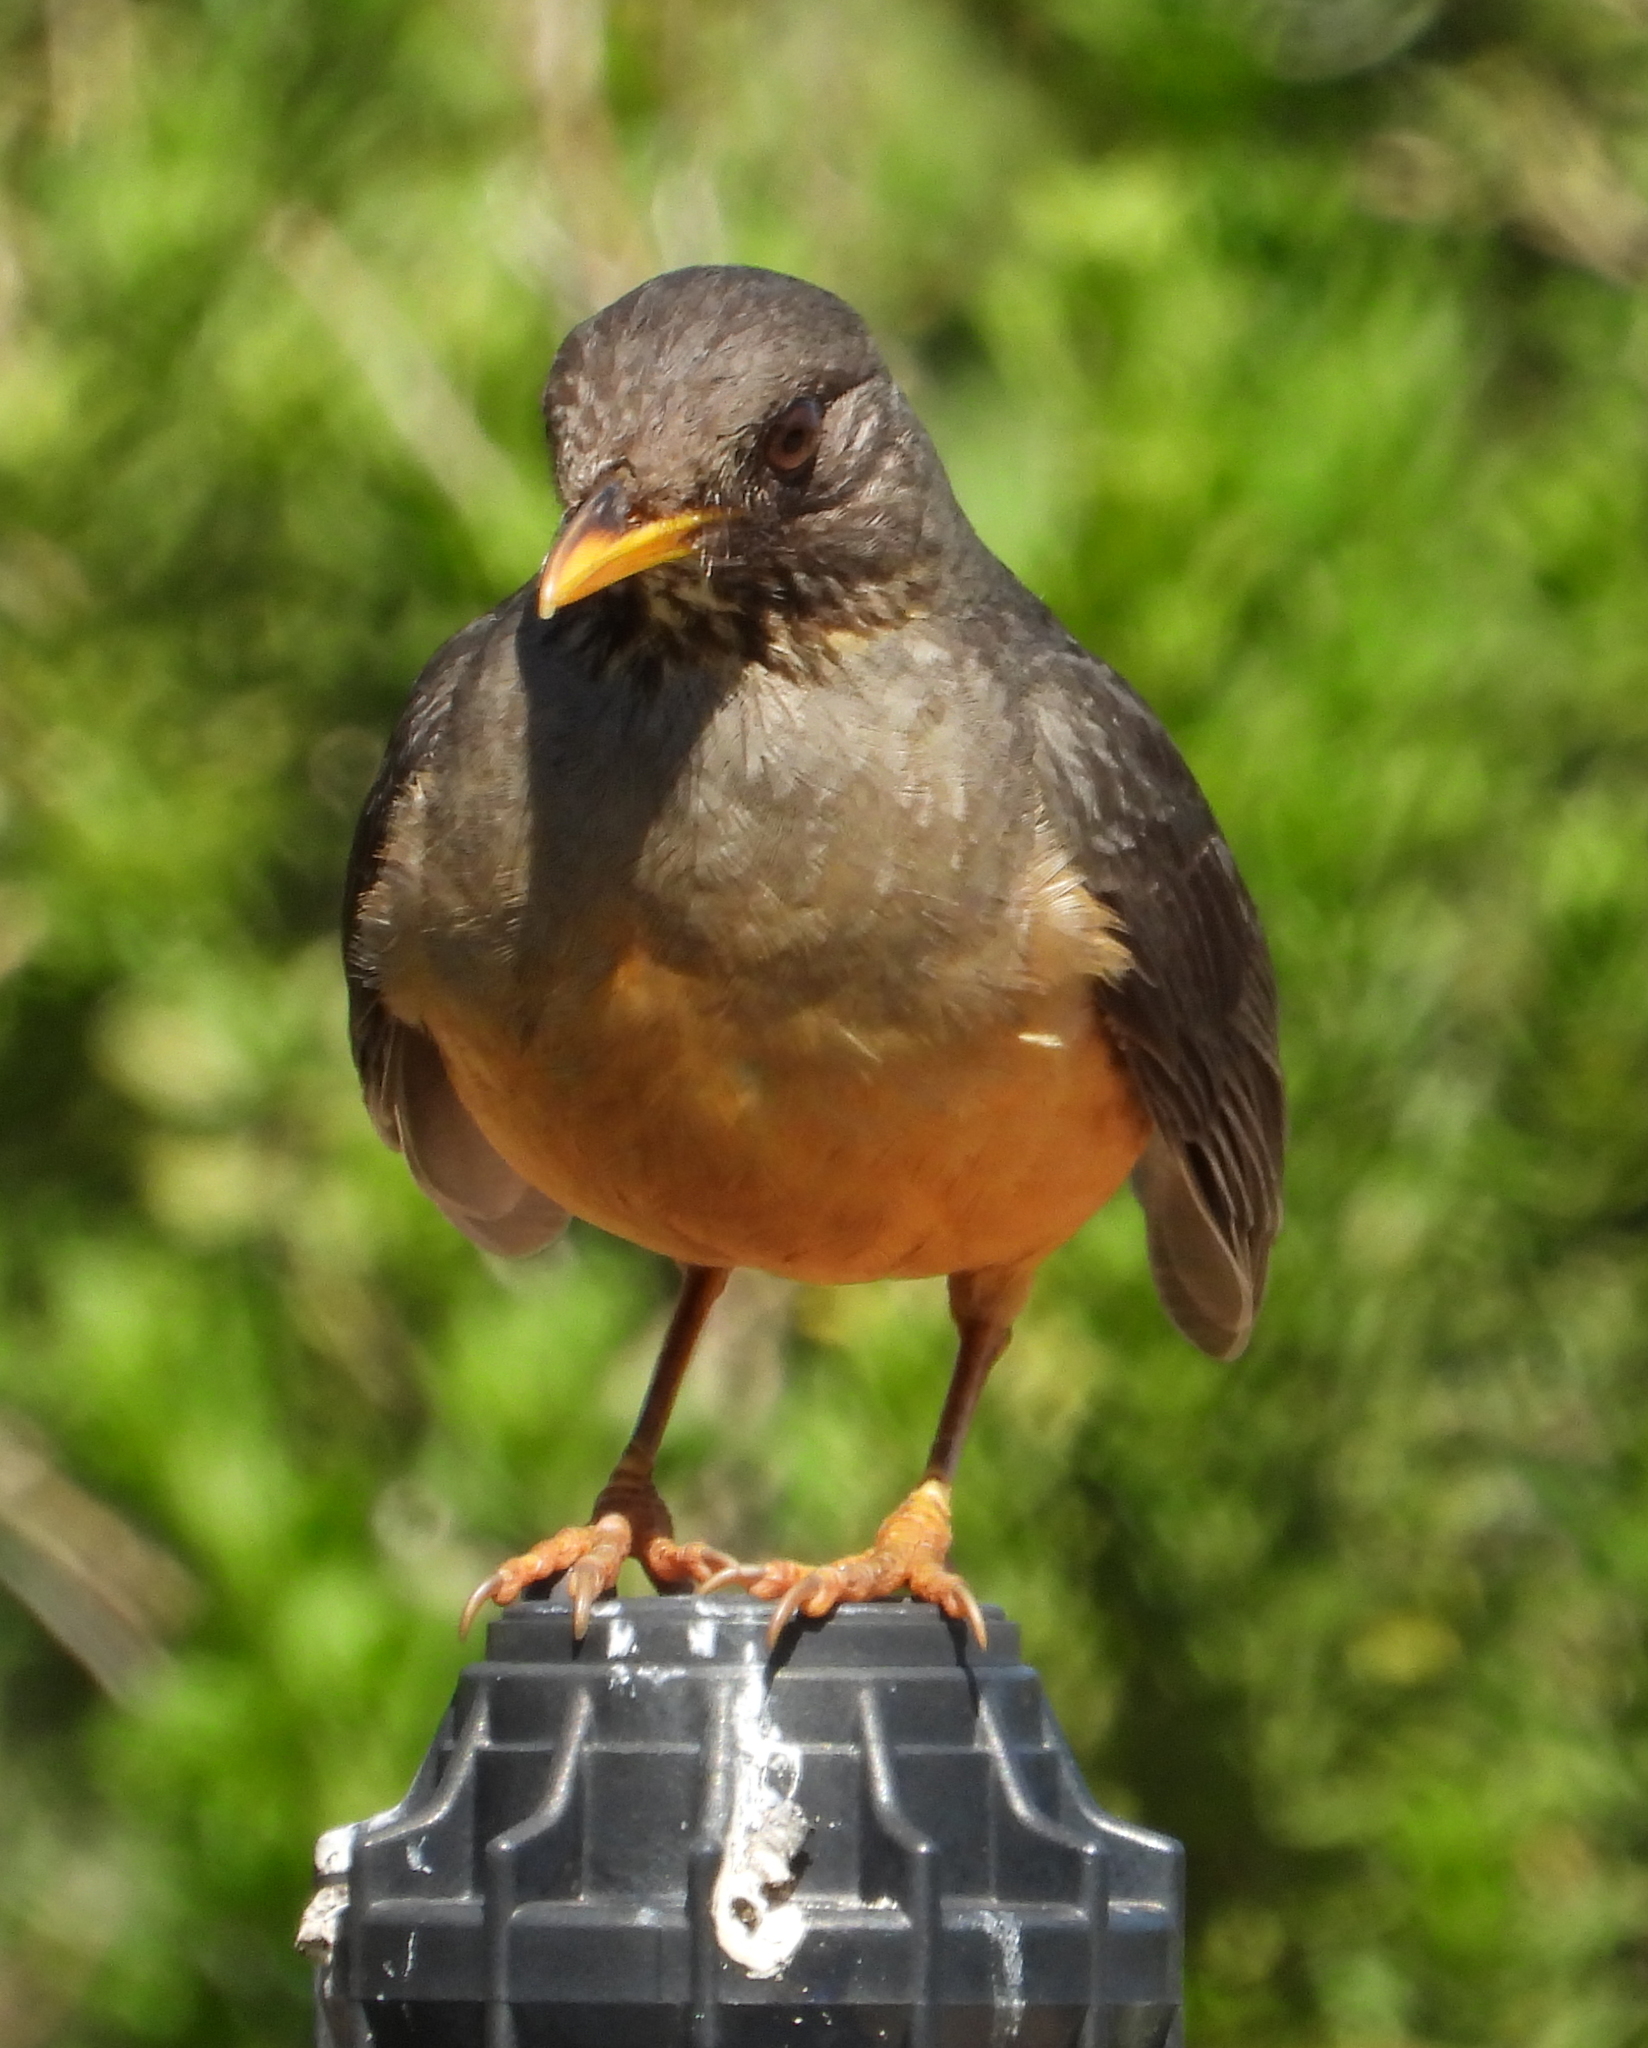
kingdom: Animalia
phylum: Chordata
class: Aves
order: Passeriformes
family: Turdidae
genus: Turdus
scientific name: Turdus olivaceus
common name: Olive thrush
